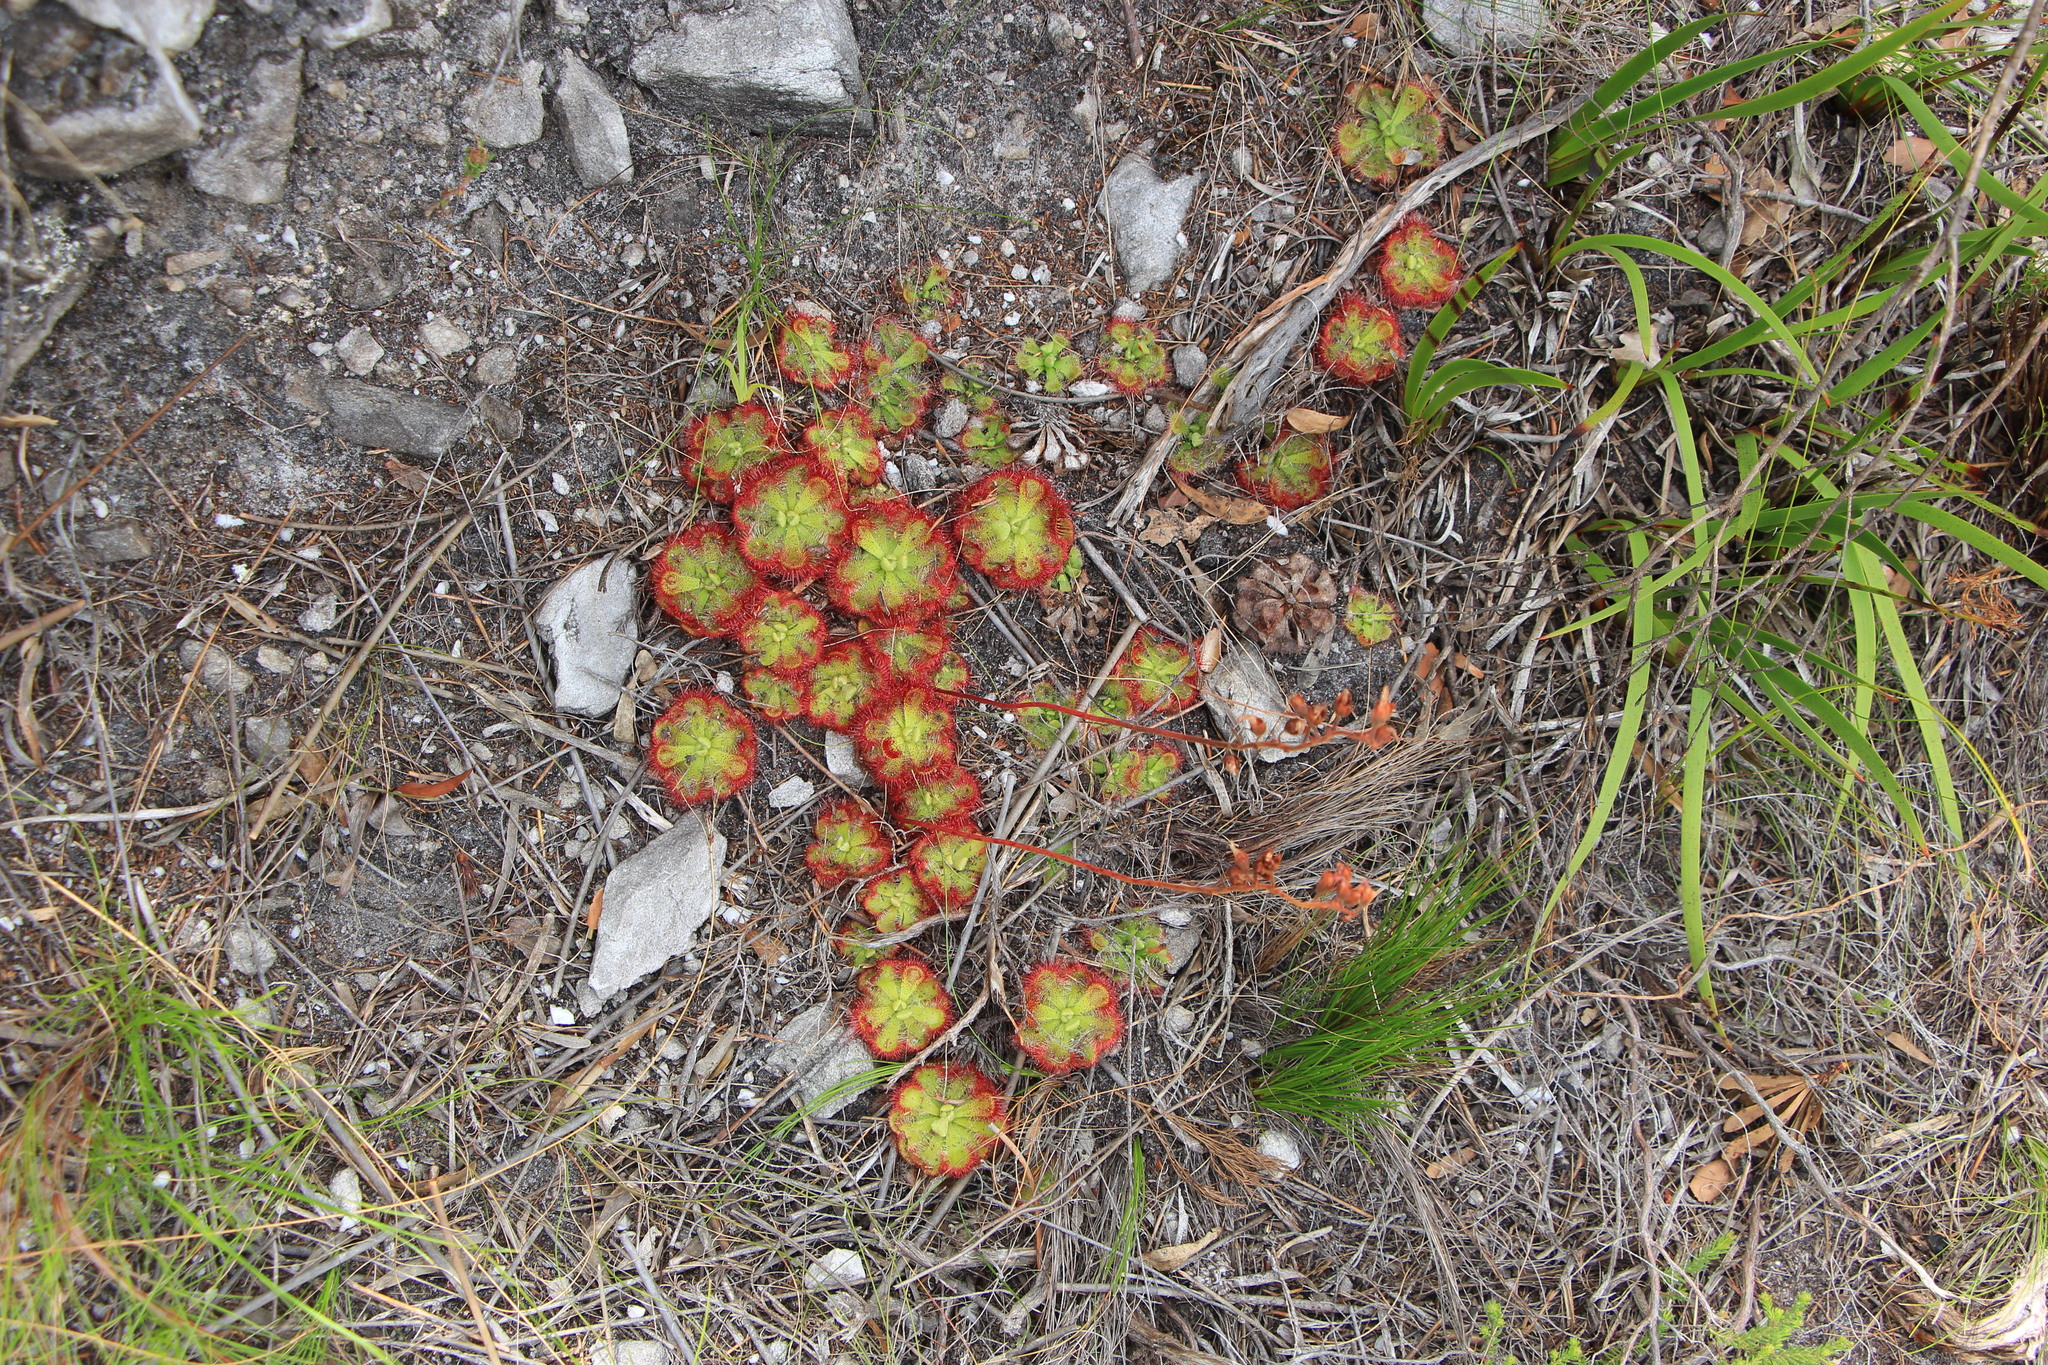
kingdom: Plantae
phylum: Tracheophyta
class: Magnoliopsida
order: Caryophyllales
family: Droseraceae
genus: Drosera
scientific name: Drosera xerophila
